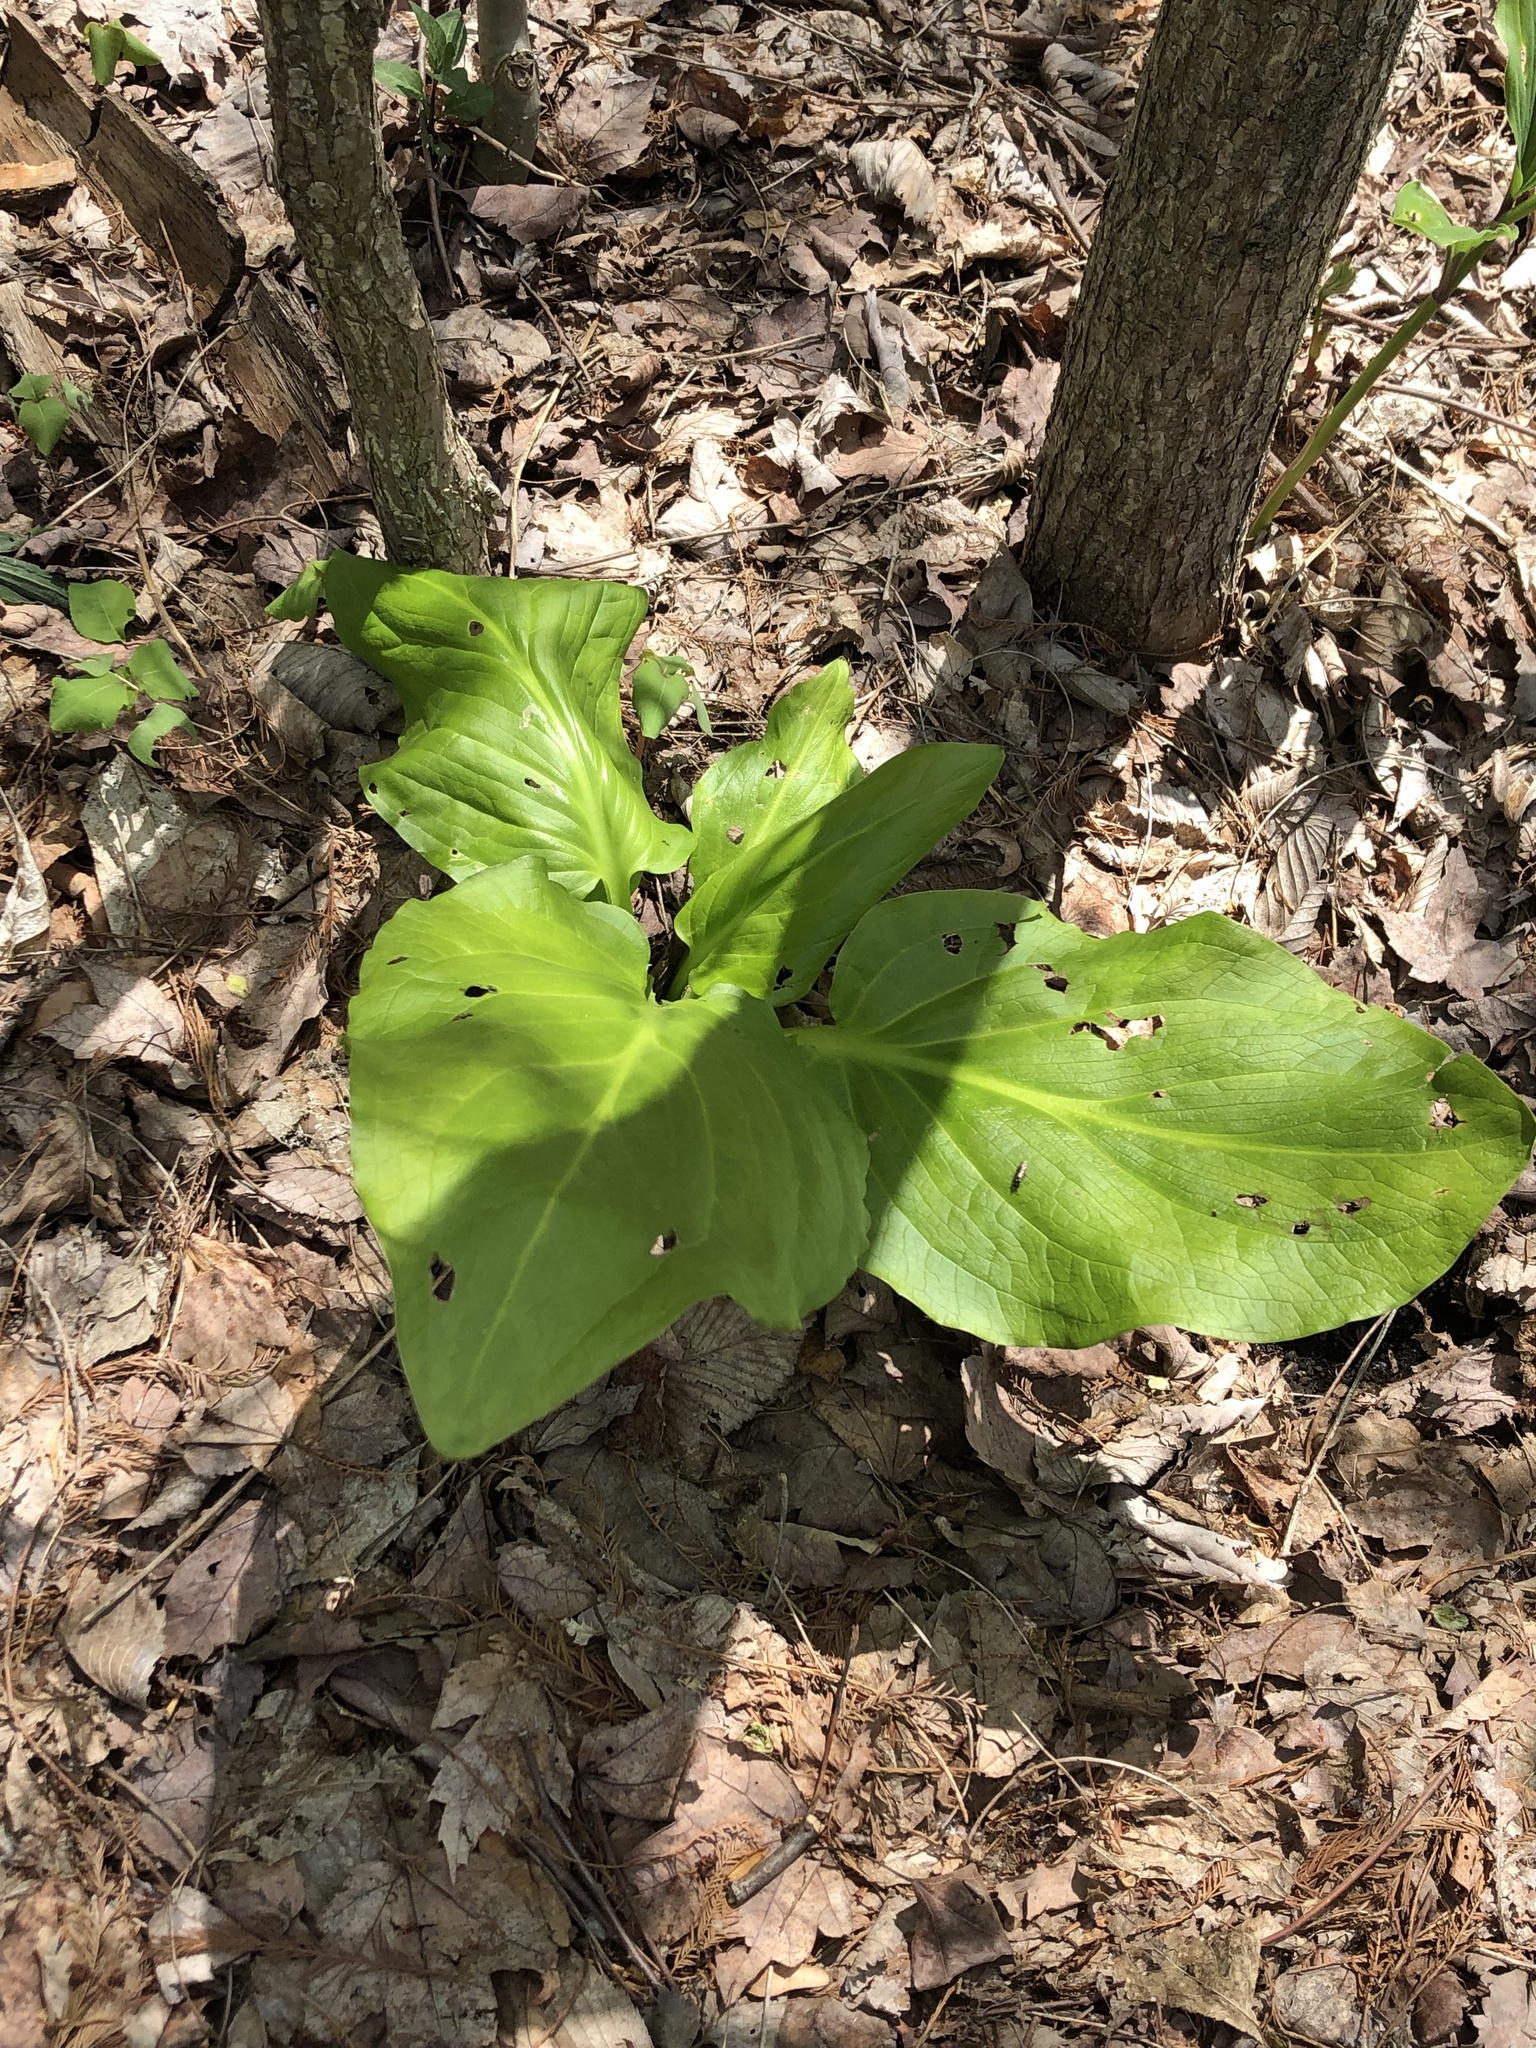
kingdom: Plantae
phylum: Tracheophyta
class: Liliopsida
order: Alismatales
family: Araceae
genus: Symplocarpus
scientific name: Symplocarpus foetidus
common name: Eastern skunk cabbage
